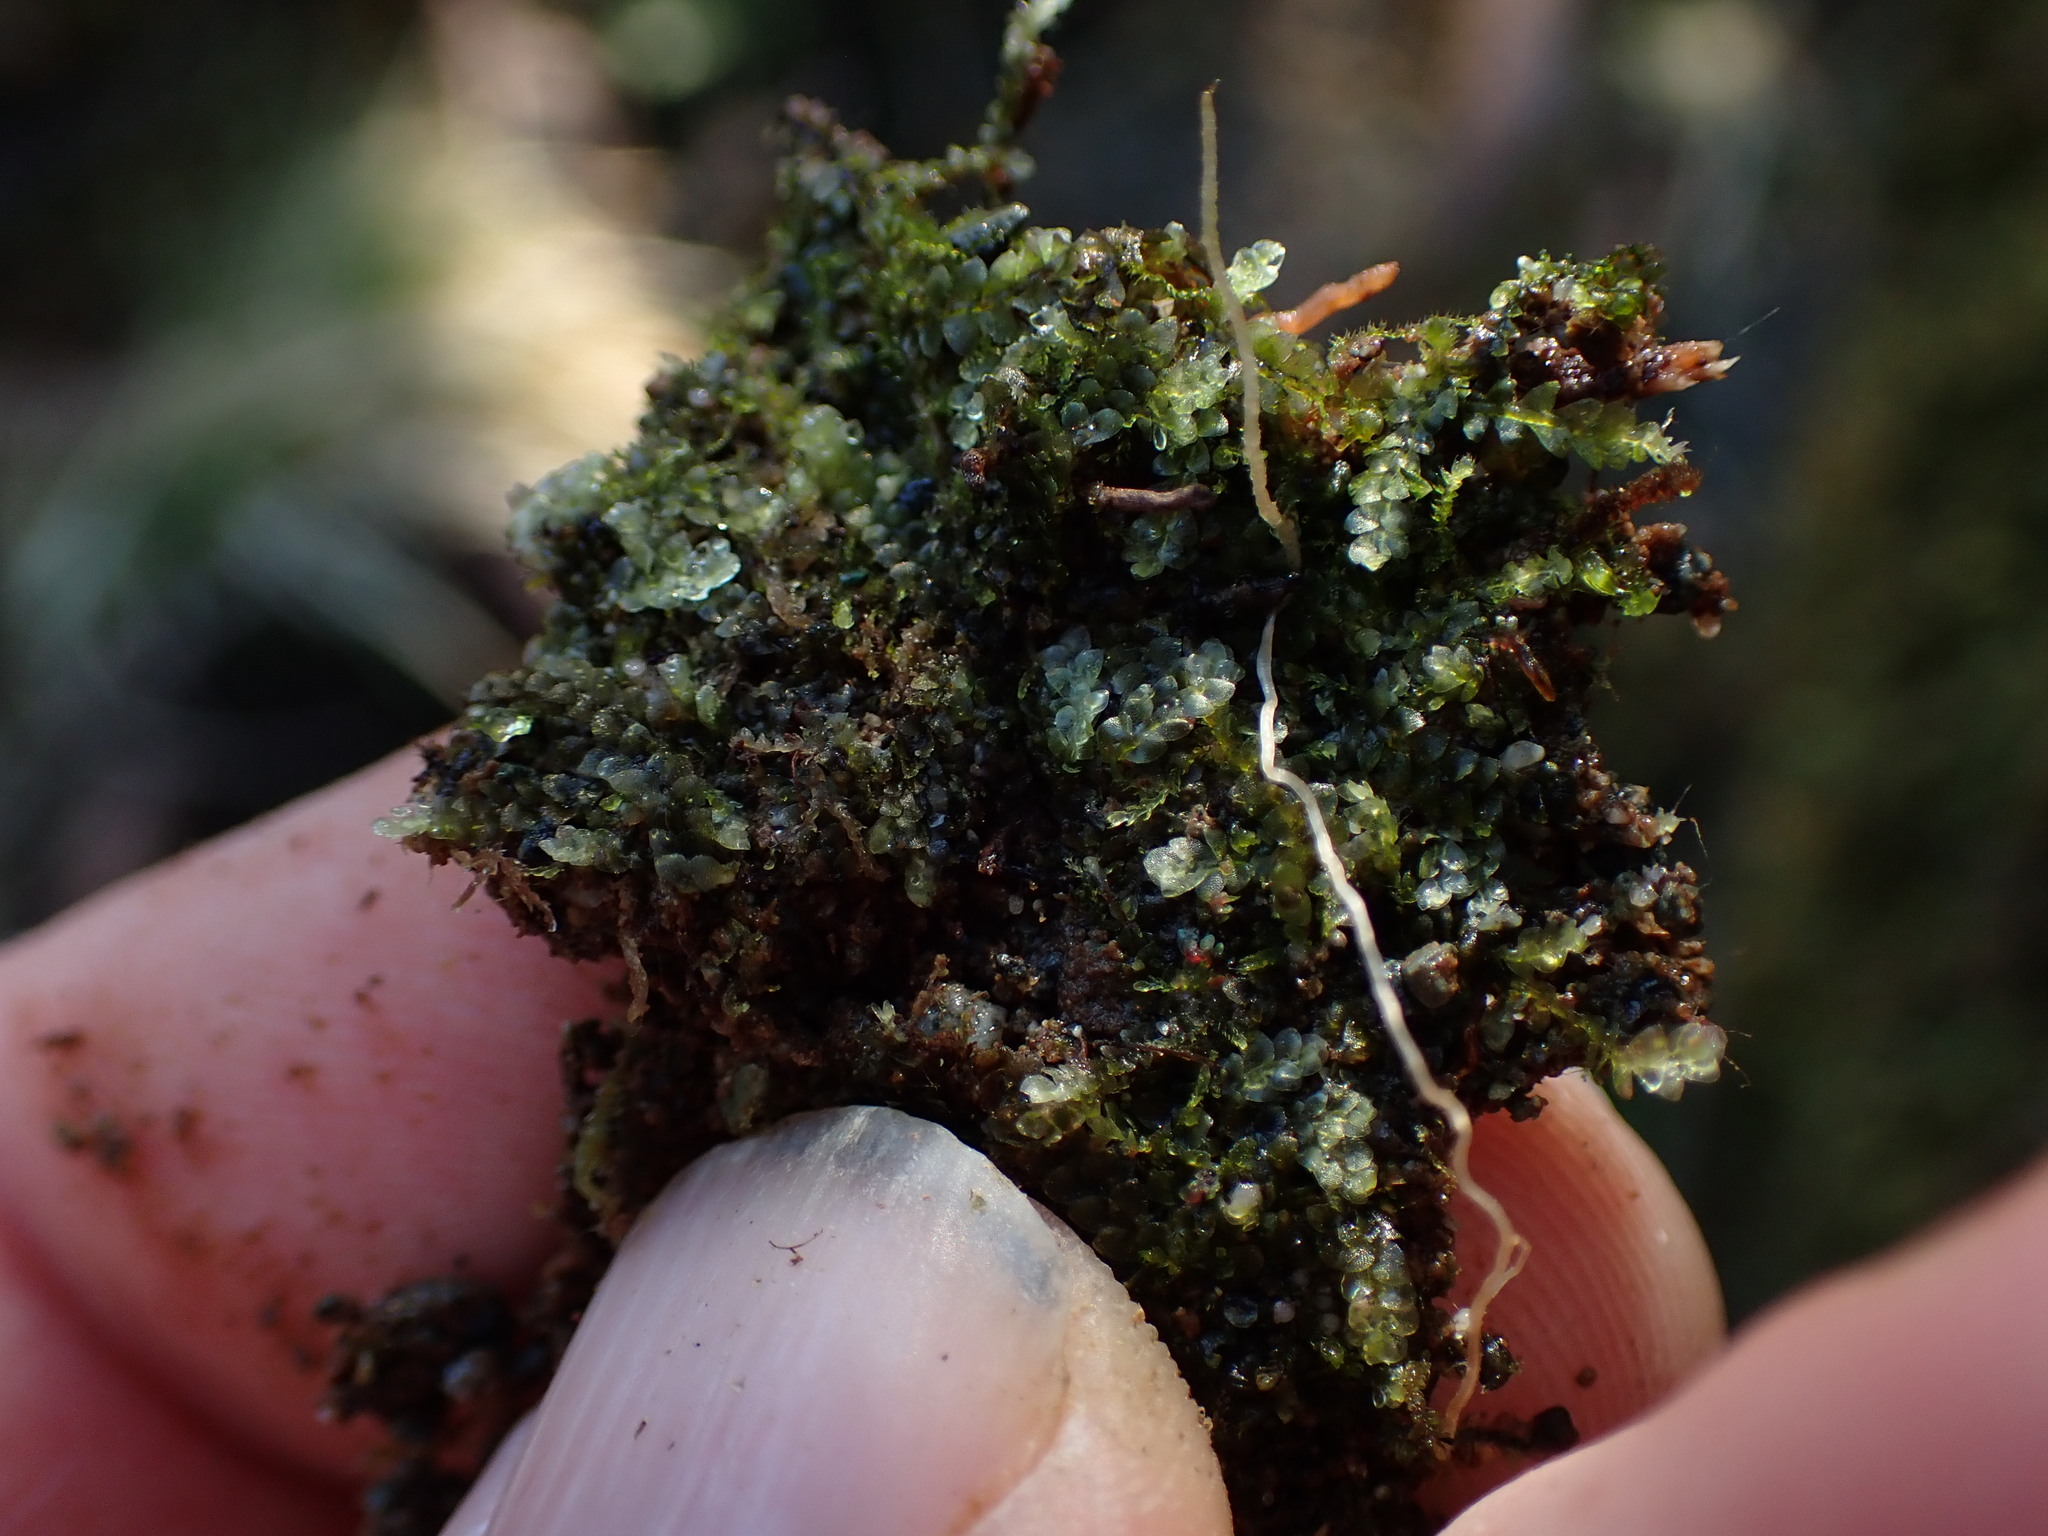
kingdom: Plantae
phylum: Marchantiophyta
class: Jungermanniopsida
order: Jungermanniales
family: Calypogeiaceae
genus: Calypogeia
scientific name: Calypogeia azurea
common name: Blue pouchwort
